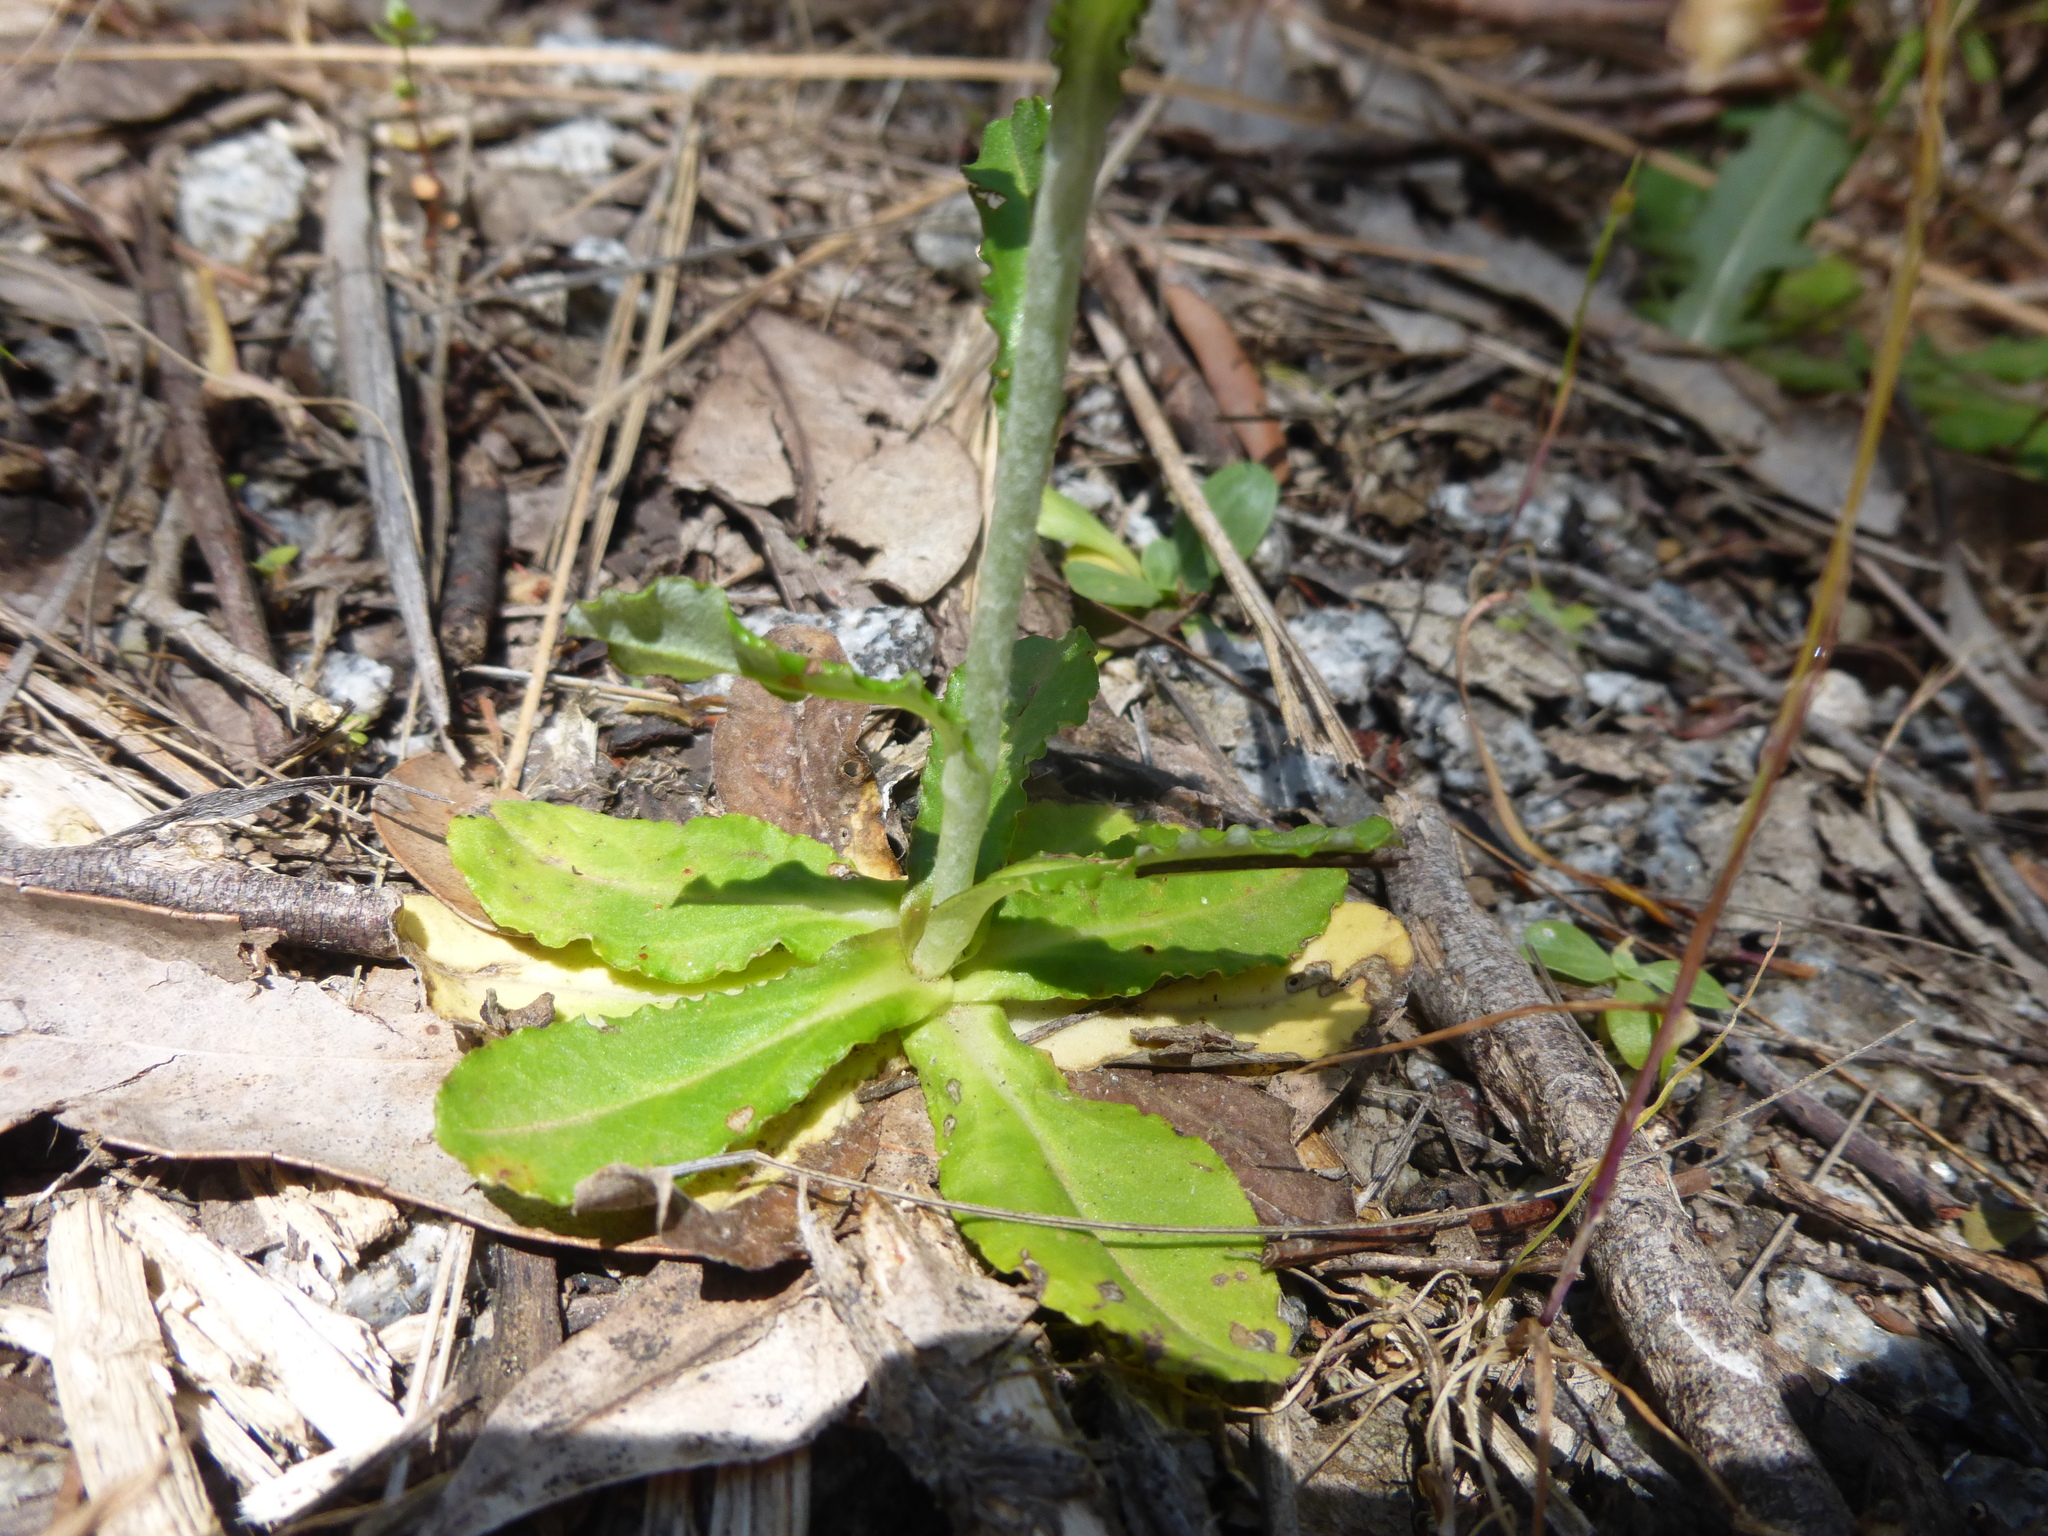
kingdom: Plantae
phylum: Tracheophyta
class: Magnoliopsida
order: Asterales
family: Asteraceae
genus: Gamochaeta
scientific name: Gamochaeta americana
